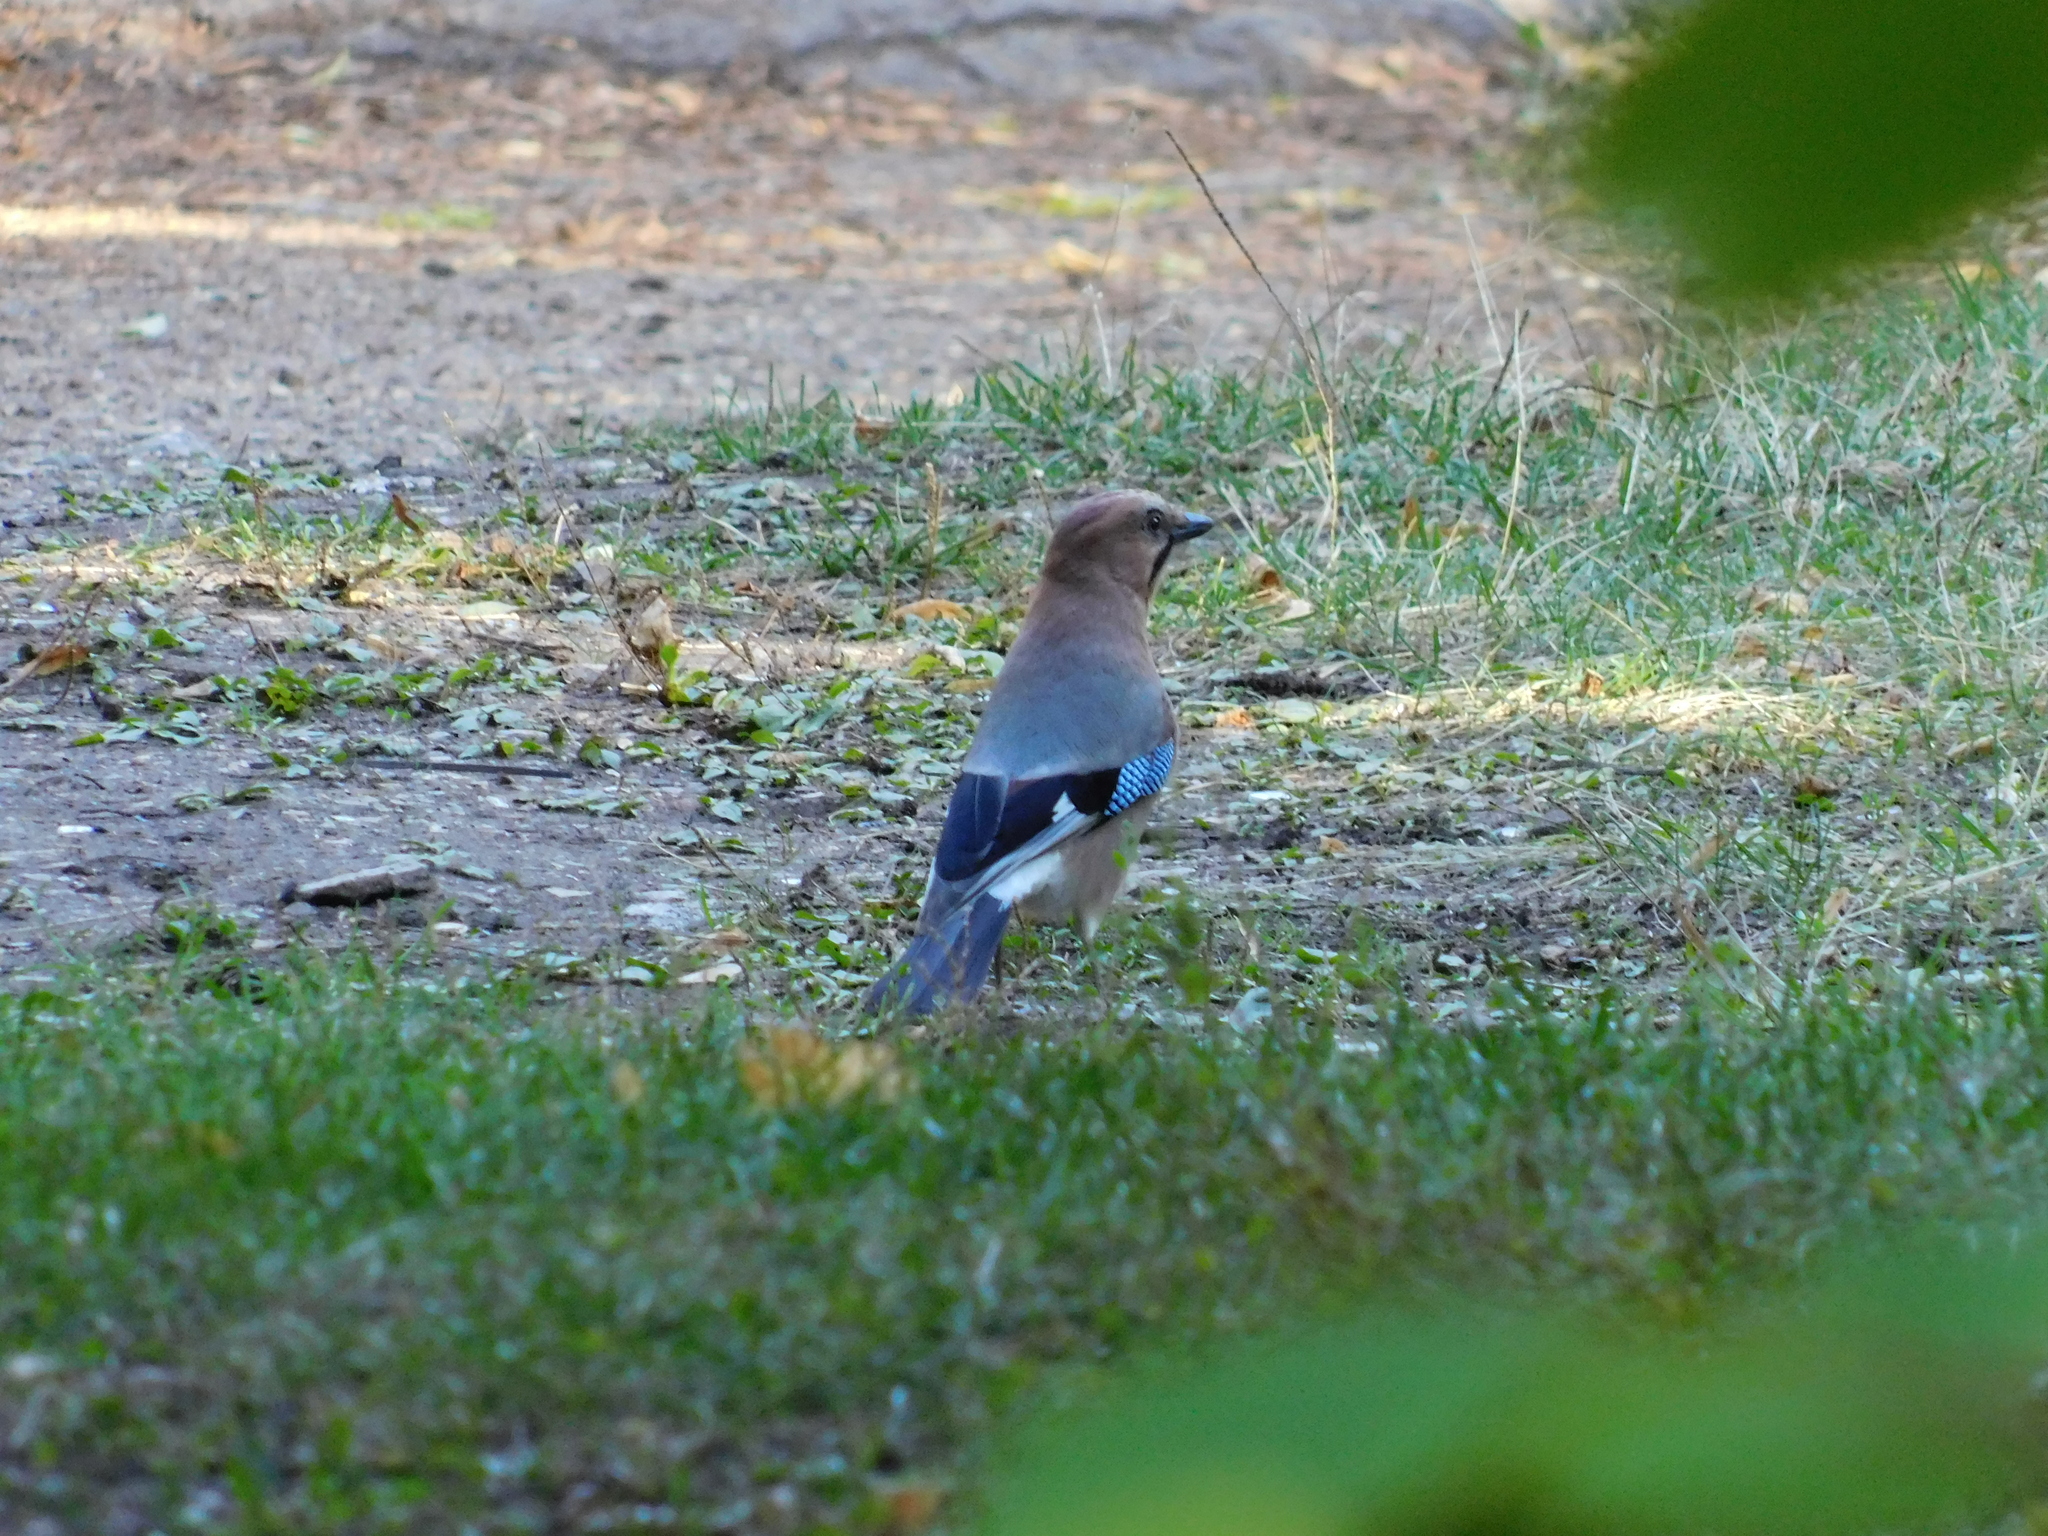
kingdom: Animalia
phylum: Chordata
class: Aves
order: Passeriformes
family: Corvidae
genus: Garrulus
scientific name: Garrulus glandarius
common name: Eurasian jay
